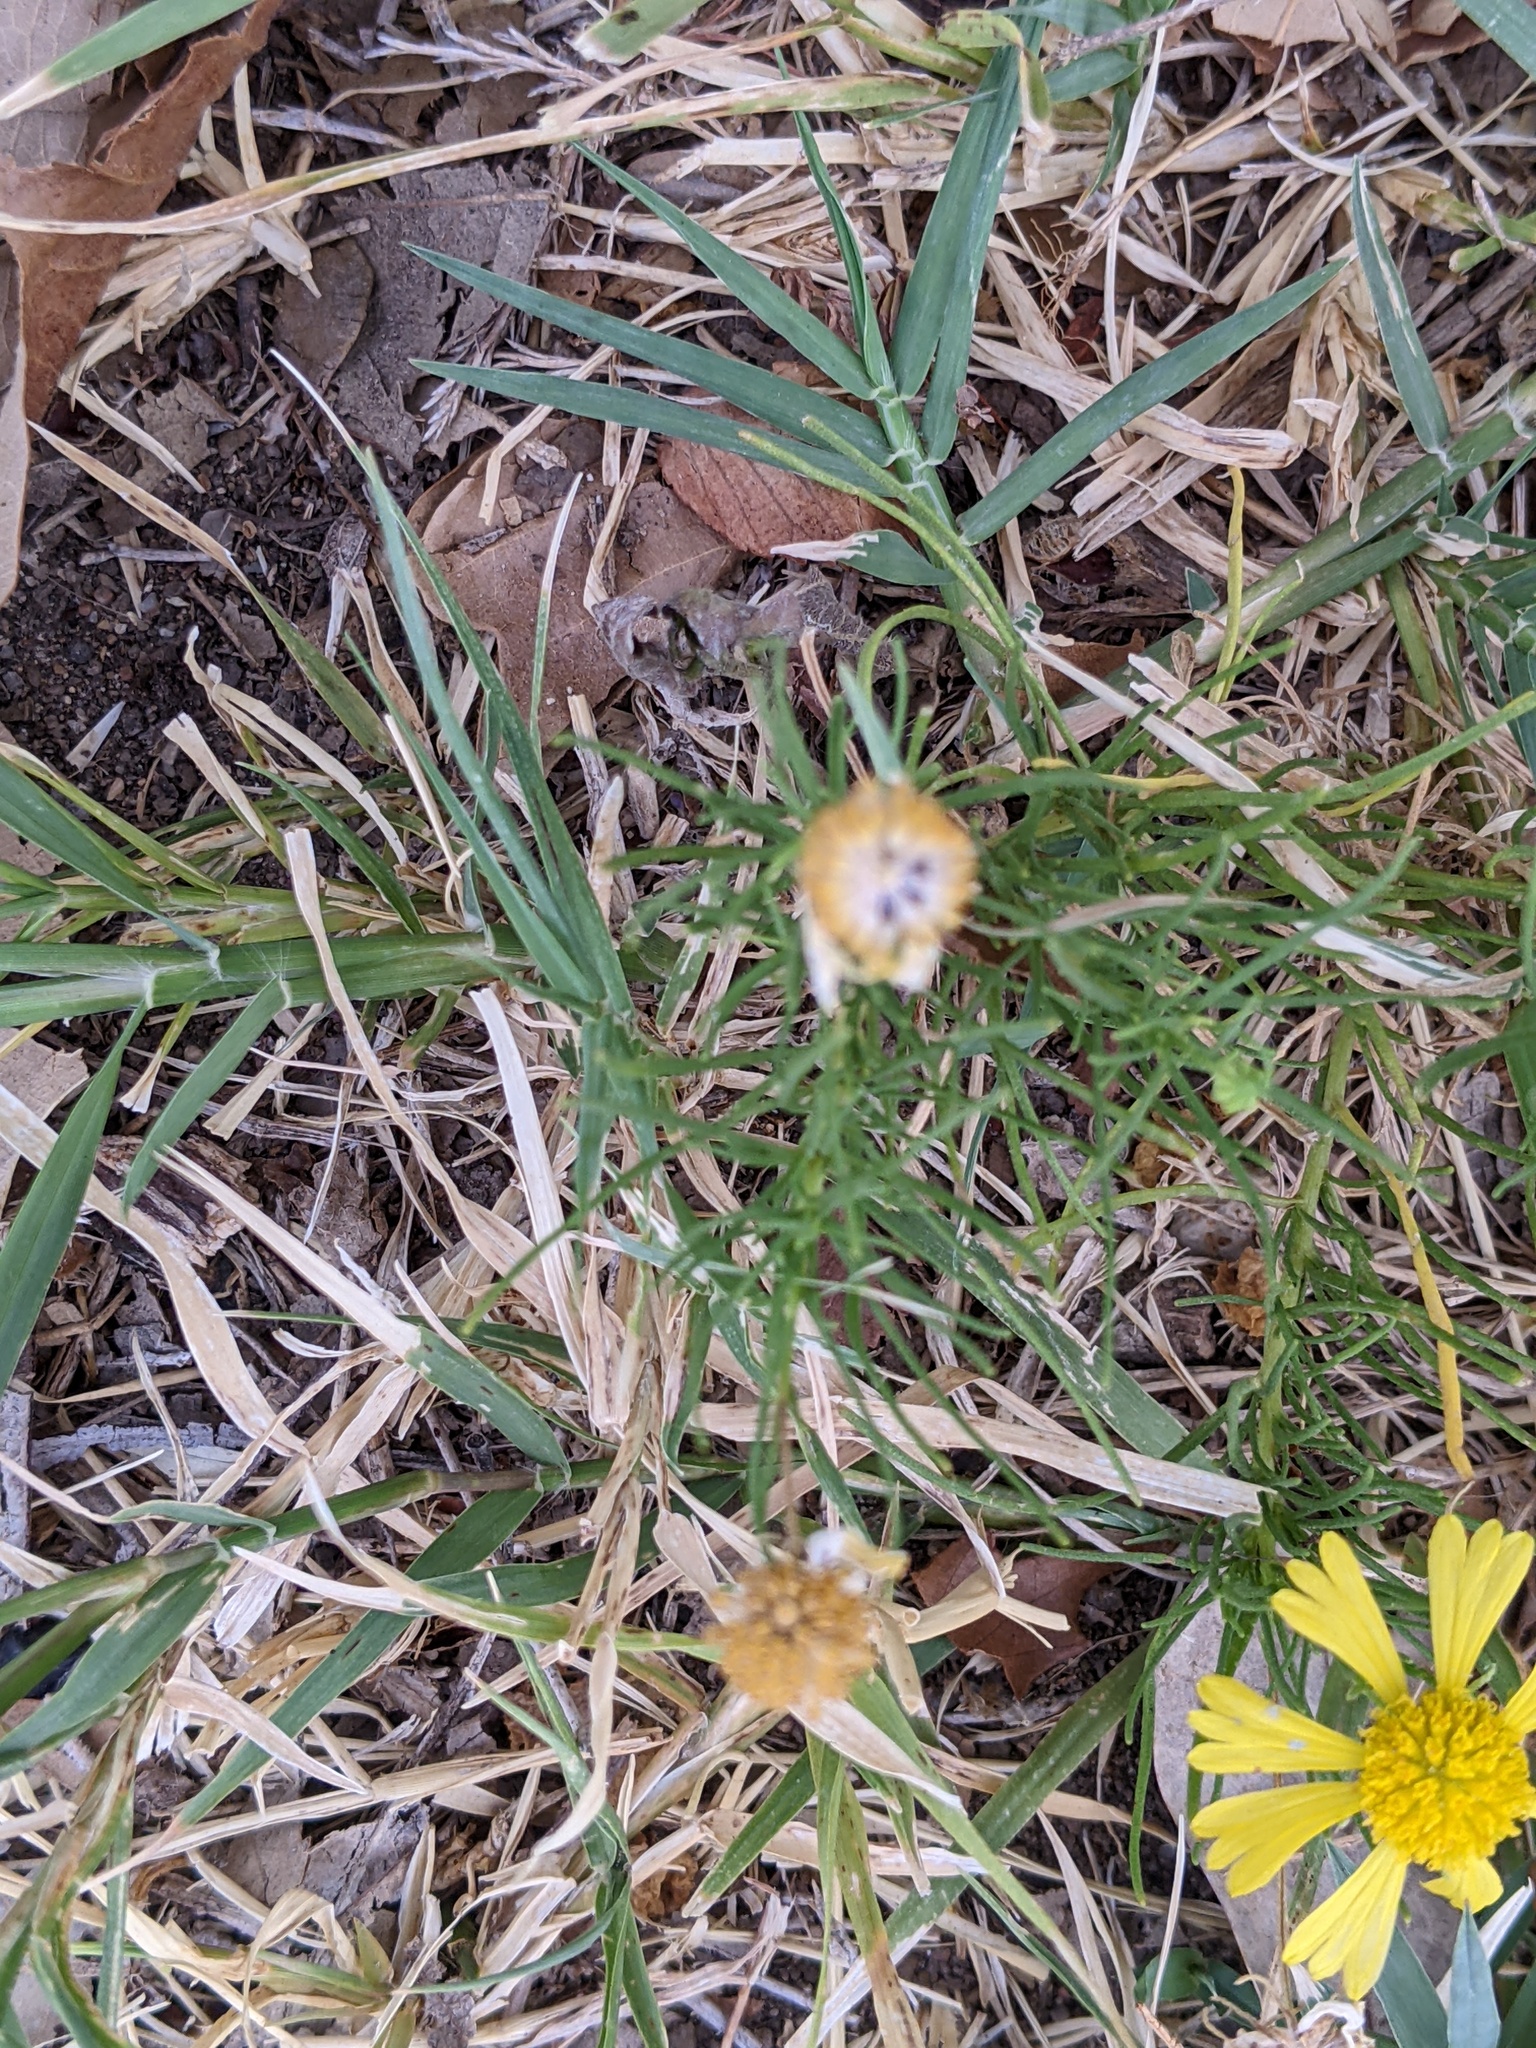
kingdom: Plantae
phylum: Tracheophyta
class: Magnoliopsida
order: Asterales
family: Asteraceae
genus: Helenium
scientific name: Helenium amarum
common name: Bitter sneezeweed
